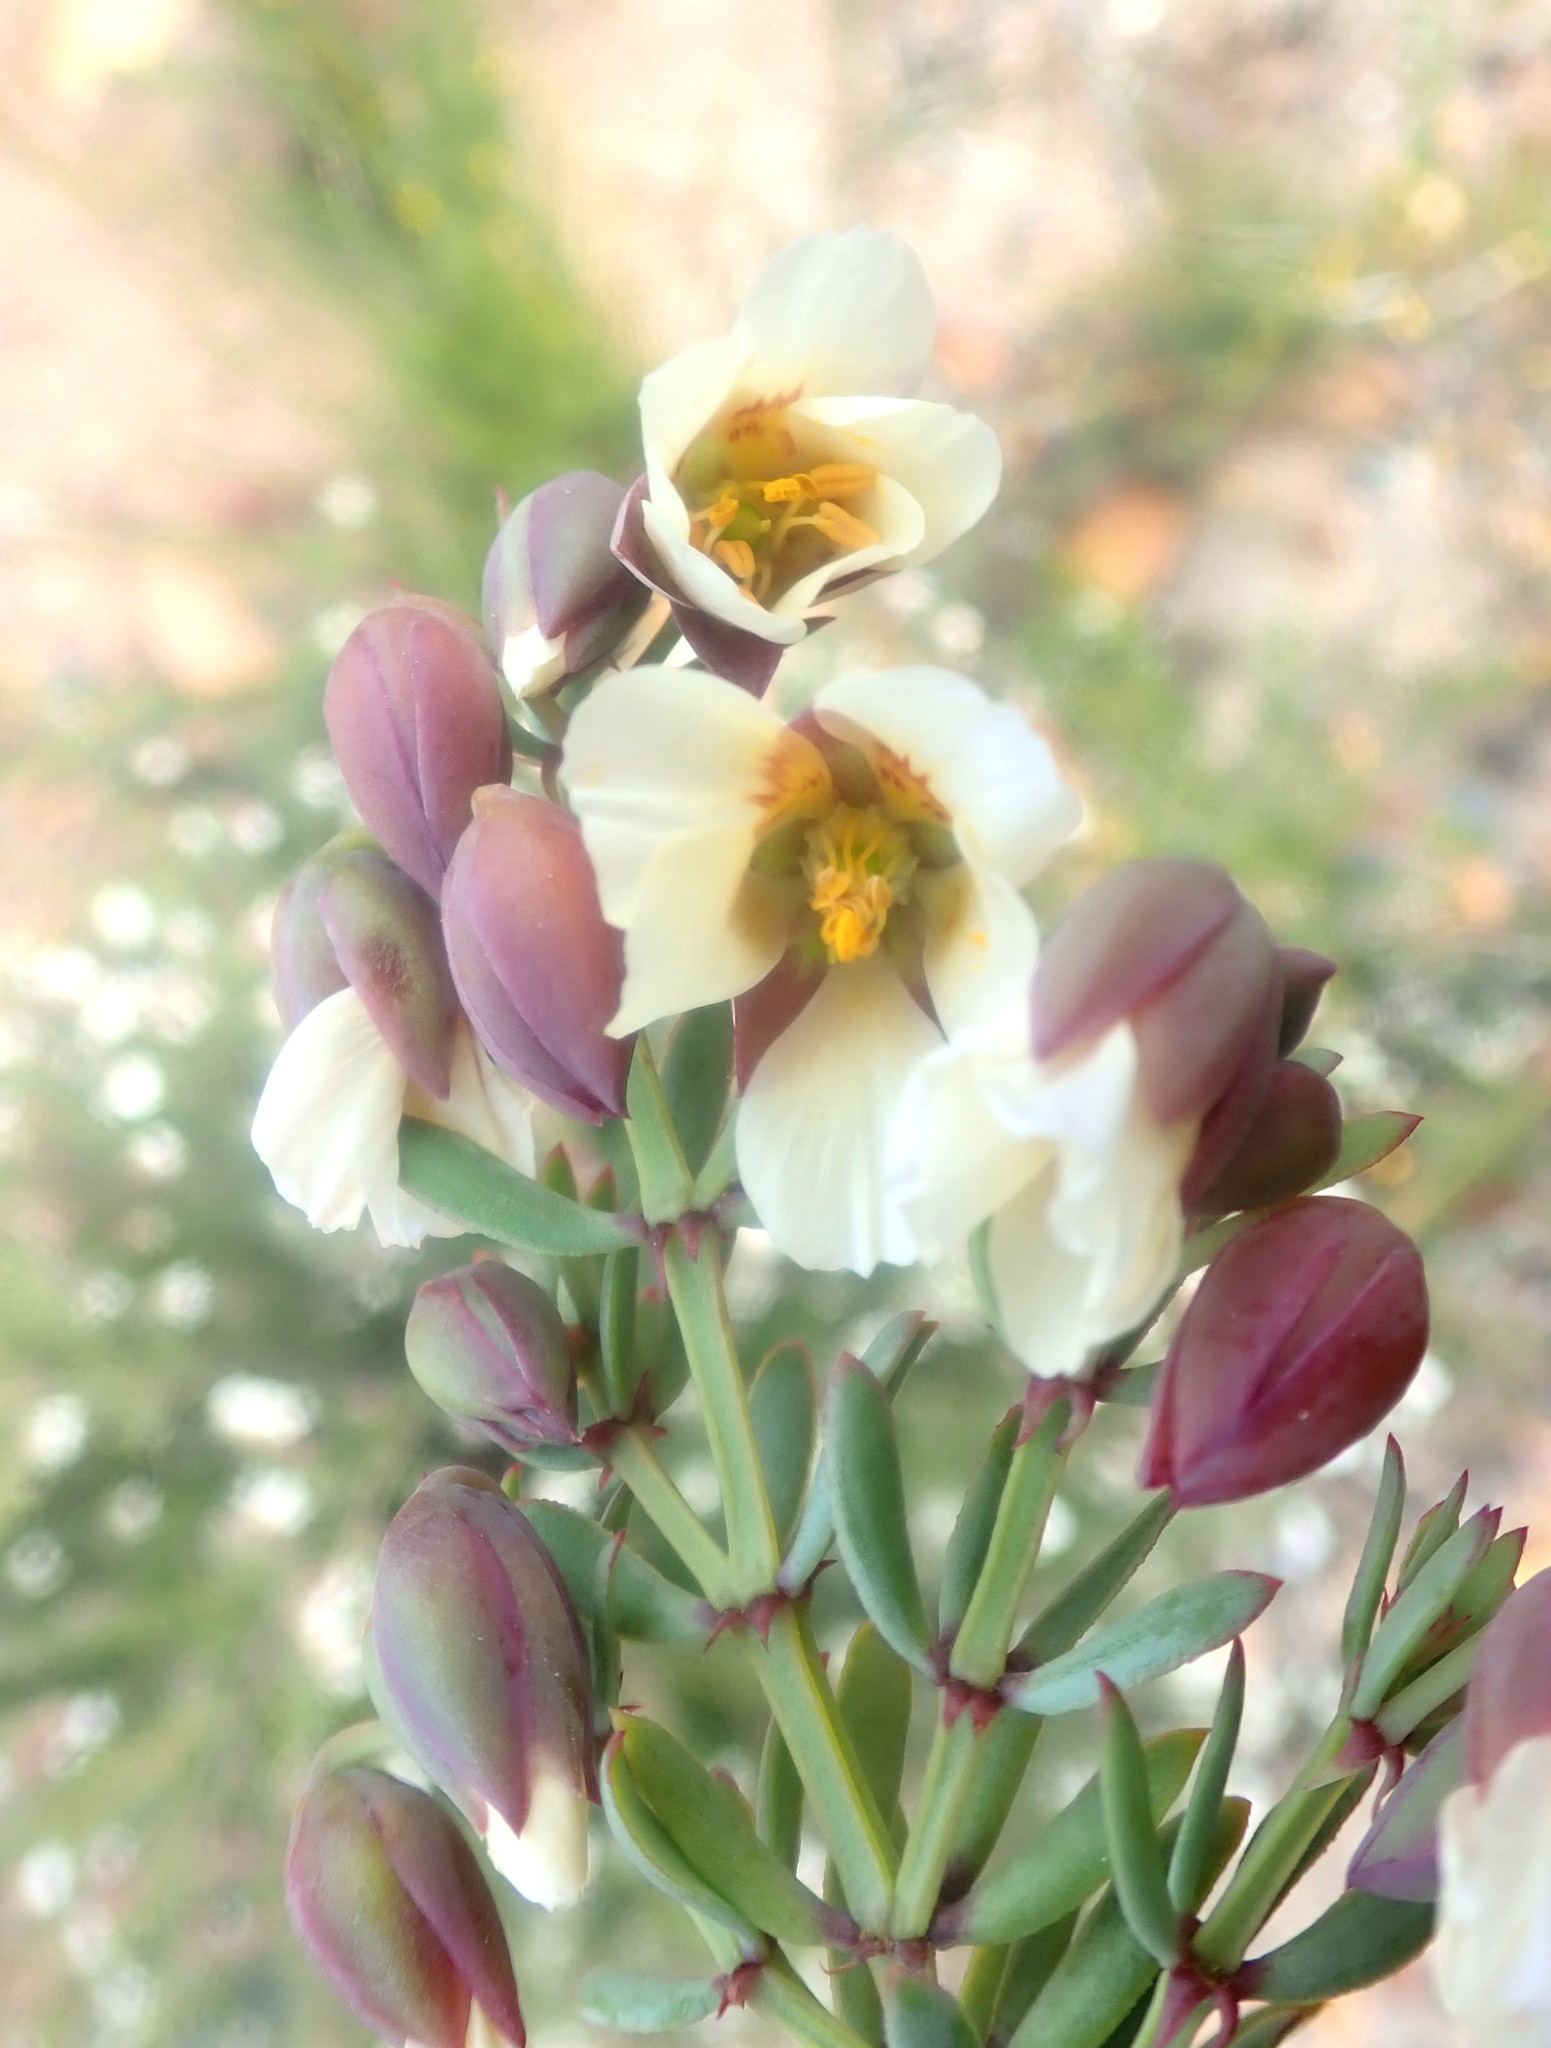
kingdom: Plantae
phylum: Tracheophyta
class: Magnoliopsida
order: Zygophyllales
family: Zygophyllaceae
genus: Roepera
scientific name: Roepera fulva
